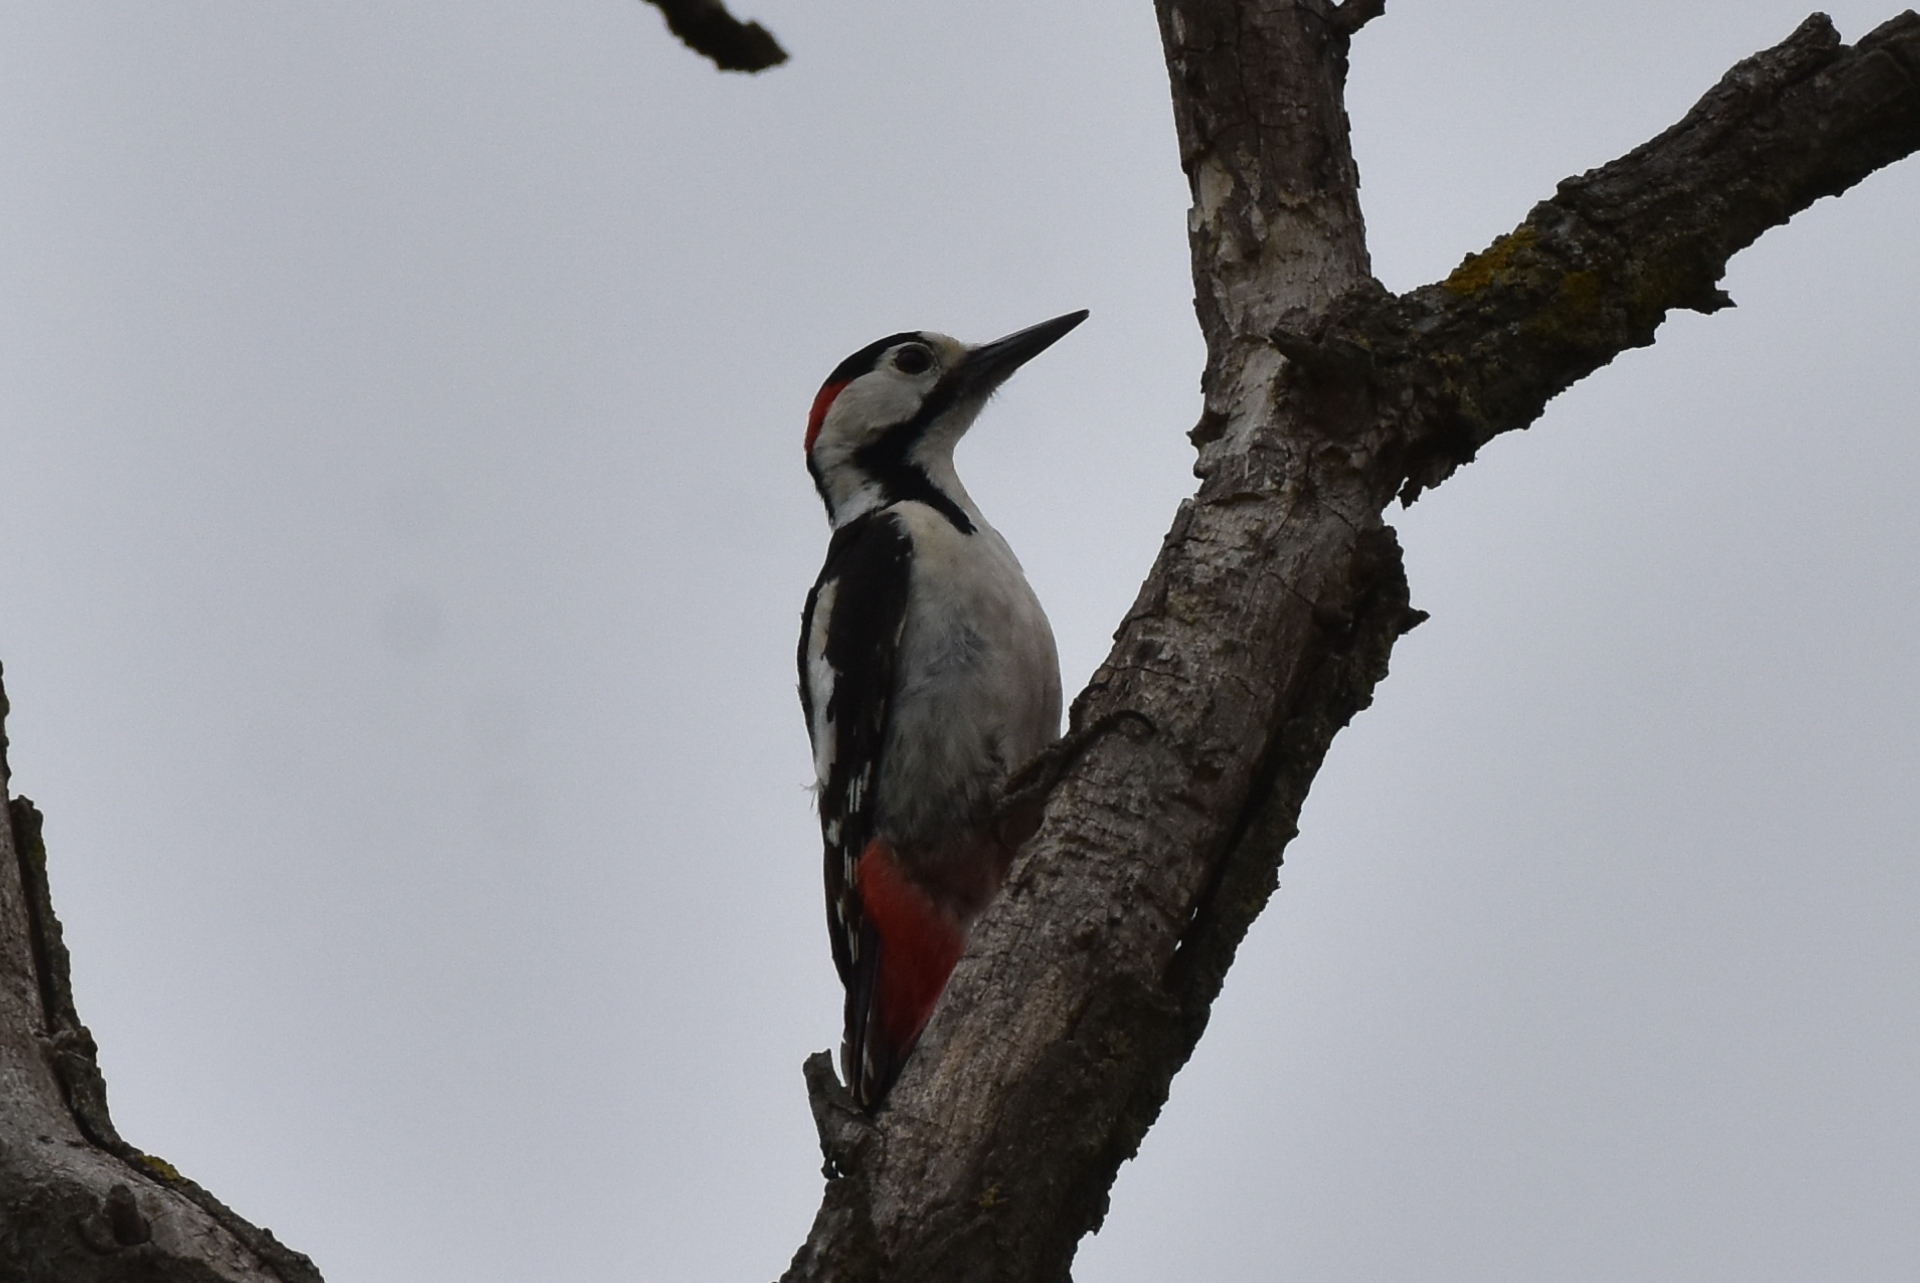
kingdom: Animalia
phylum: Chordata
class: Aves
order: Piciformes
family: Picidae
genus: Dendrocopos
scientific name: Dendrocopos syriacus
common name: Syrian woodpecker
